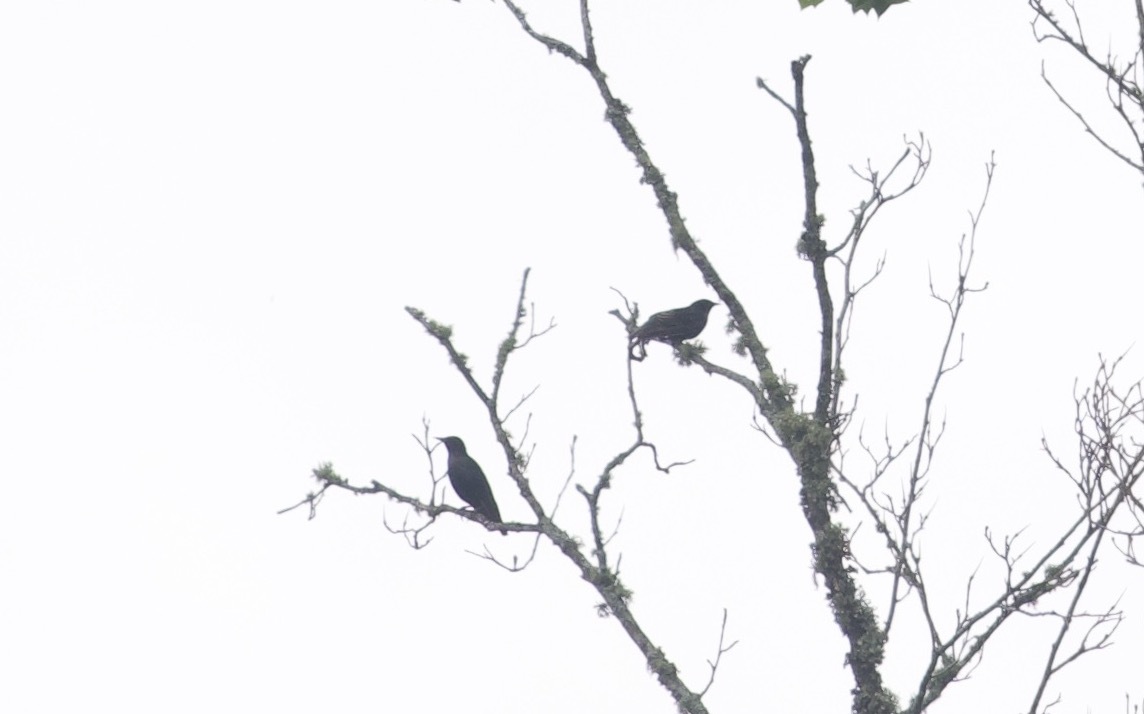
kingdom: Animalia
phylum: Chordata
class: Aves
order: Passeriformes
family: Sturnidae
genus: Sturnus
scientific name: Sturnus vulgaris
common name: Common starling
